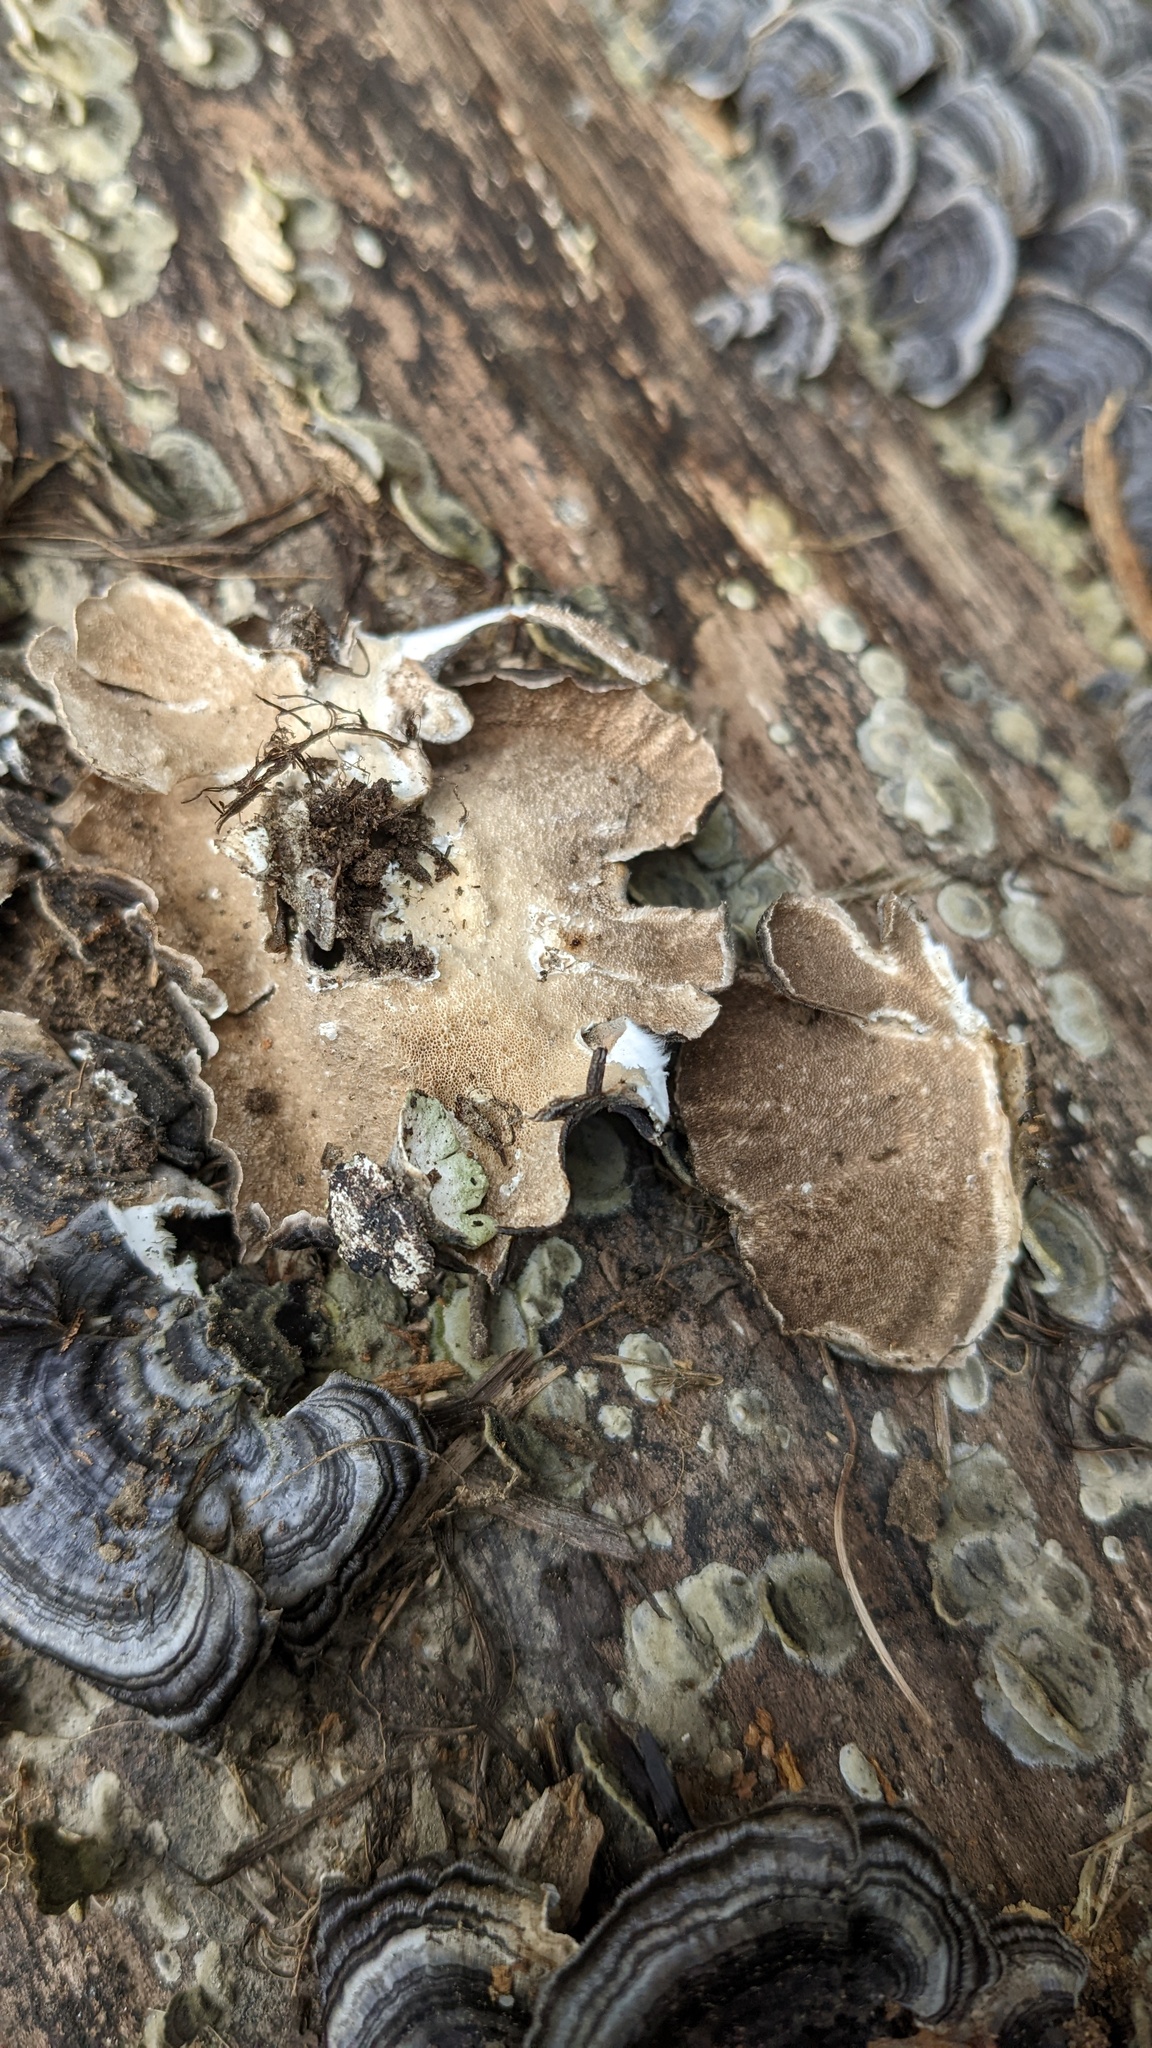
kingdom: Fungi
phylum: Basidiomycota
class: Agaricomycetes
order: Polyporales
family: Polyporaceae
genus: Trametes
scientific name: Trametes versicolor
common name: Turkeytail
